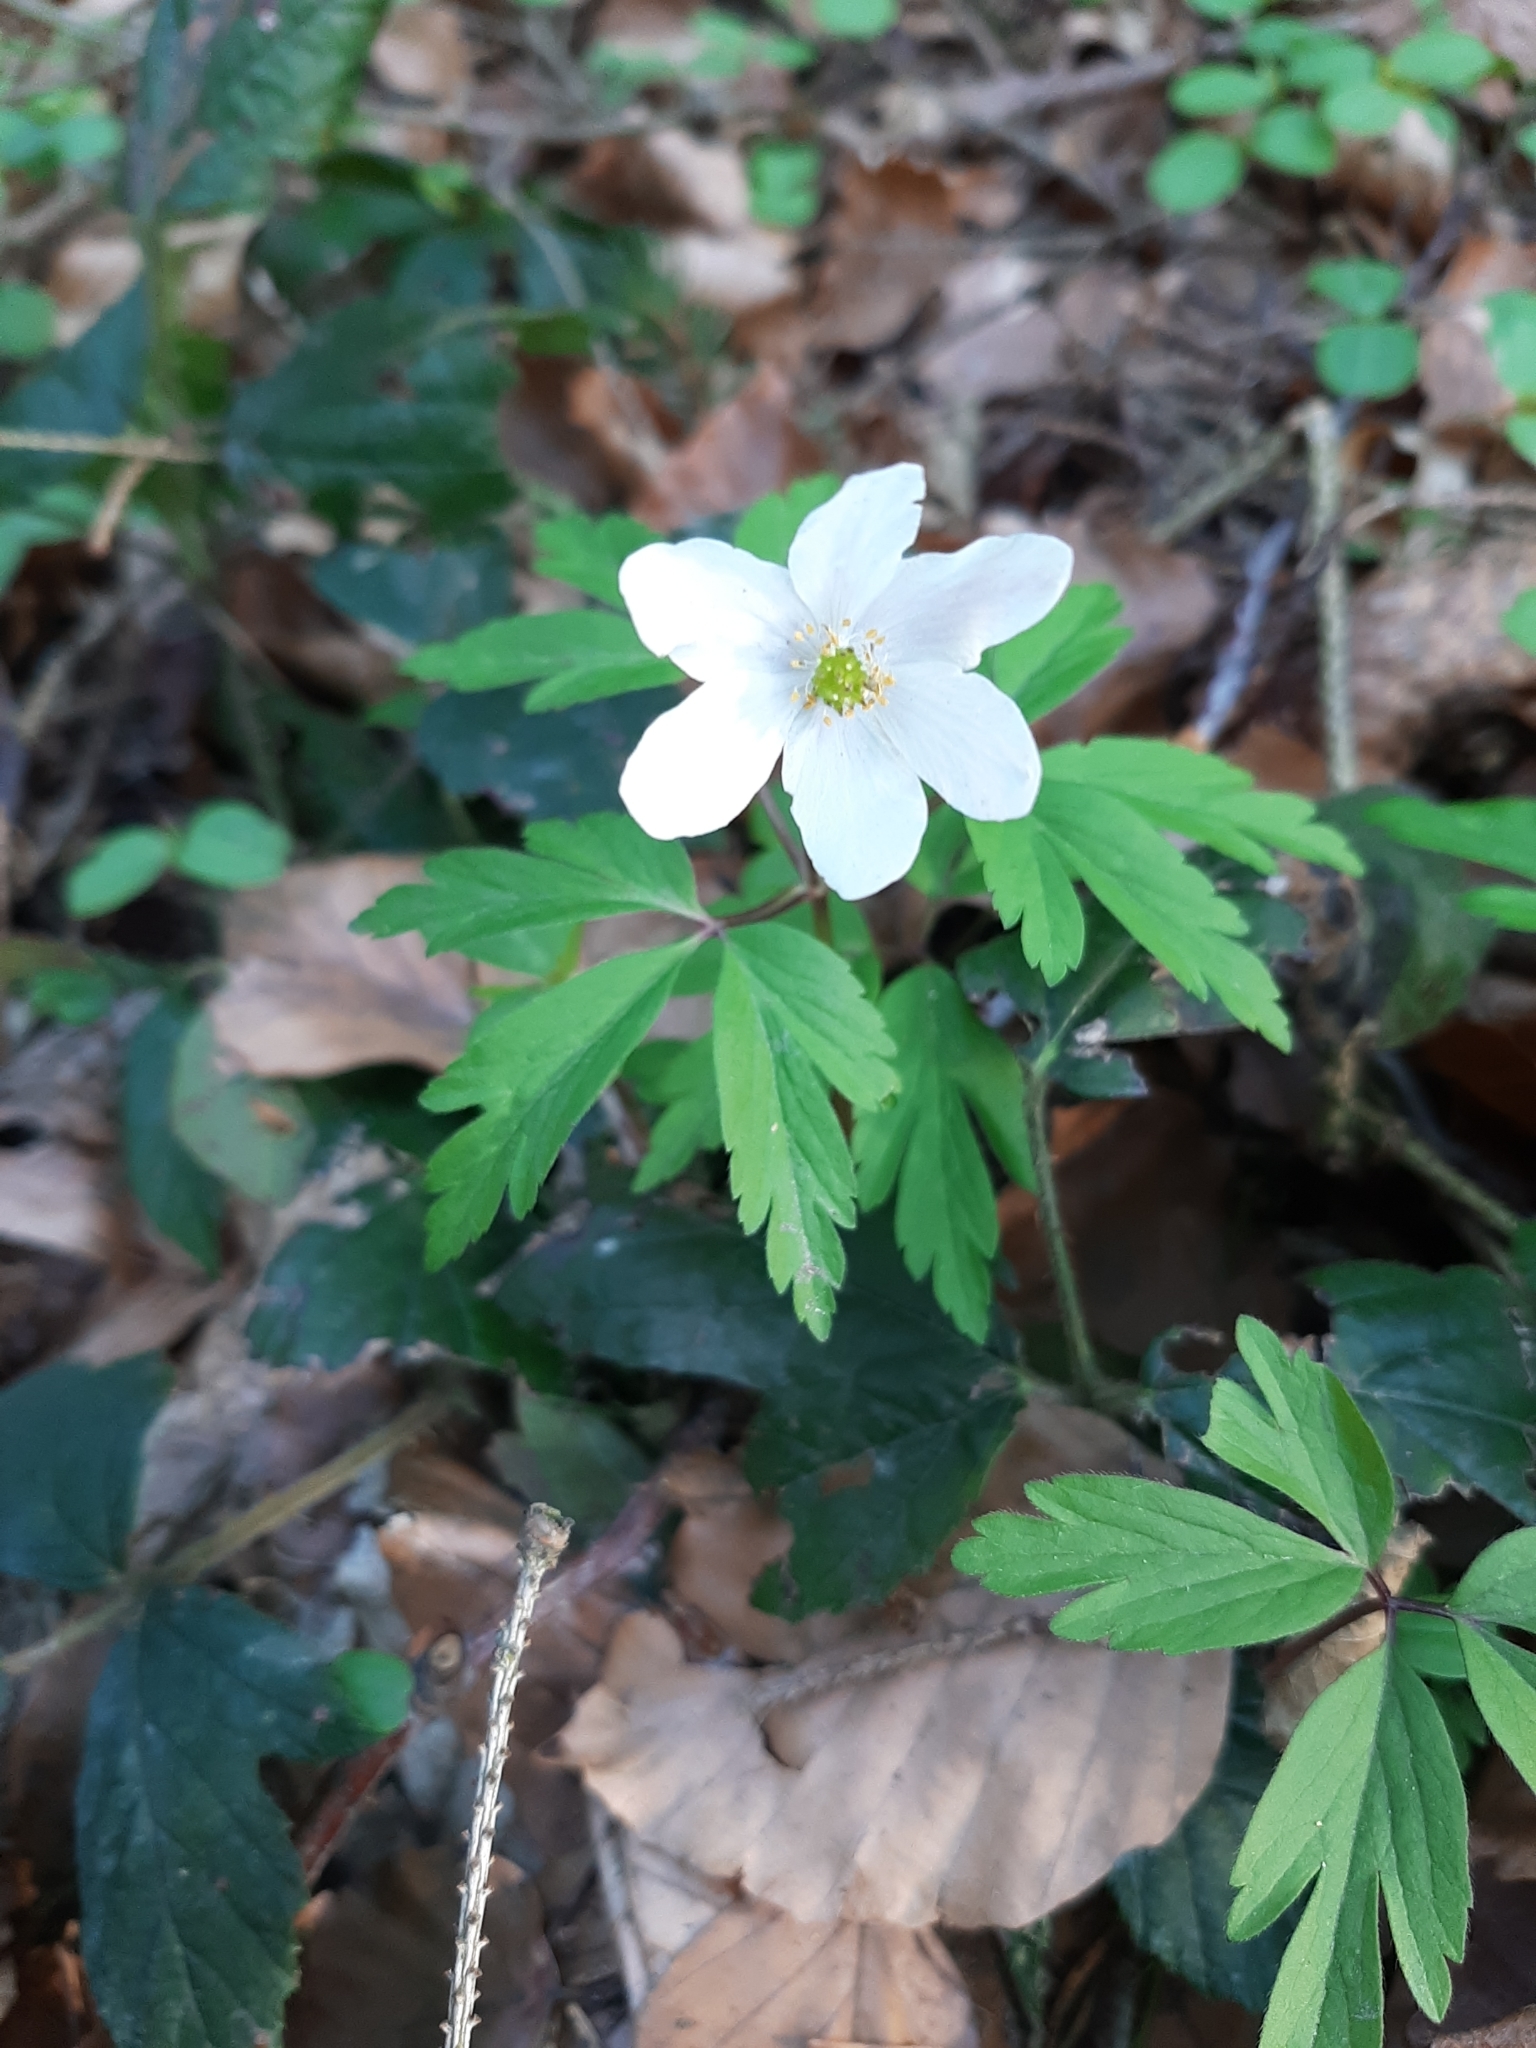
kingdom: Plantae
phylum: Tracheophyta
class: Magnoliopsida
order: Ranunculales
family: Ranunculaceae
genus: Anemone
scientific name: Anemone nemorosa
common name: Wood anemone
